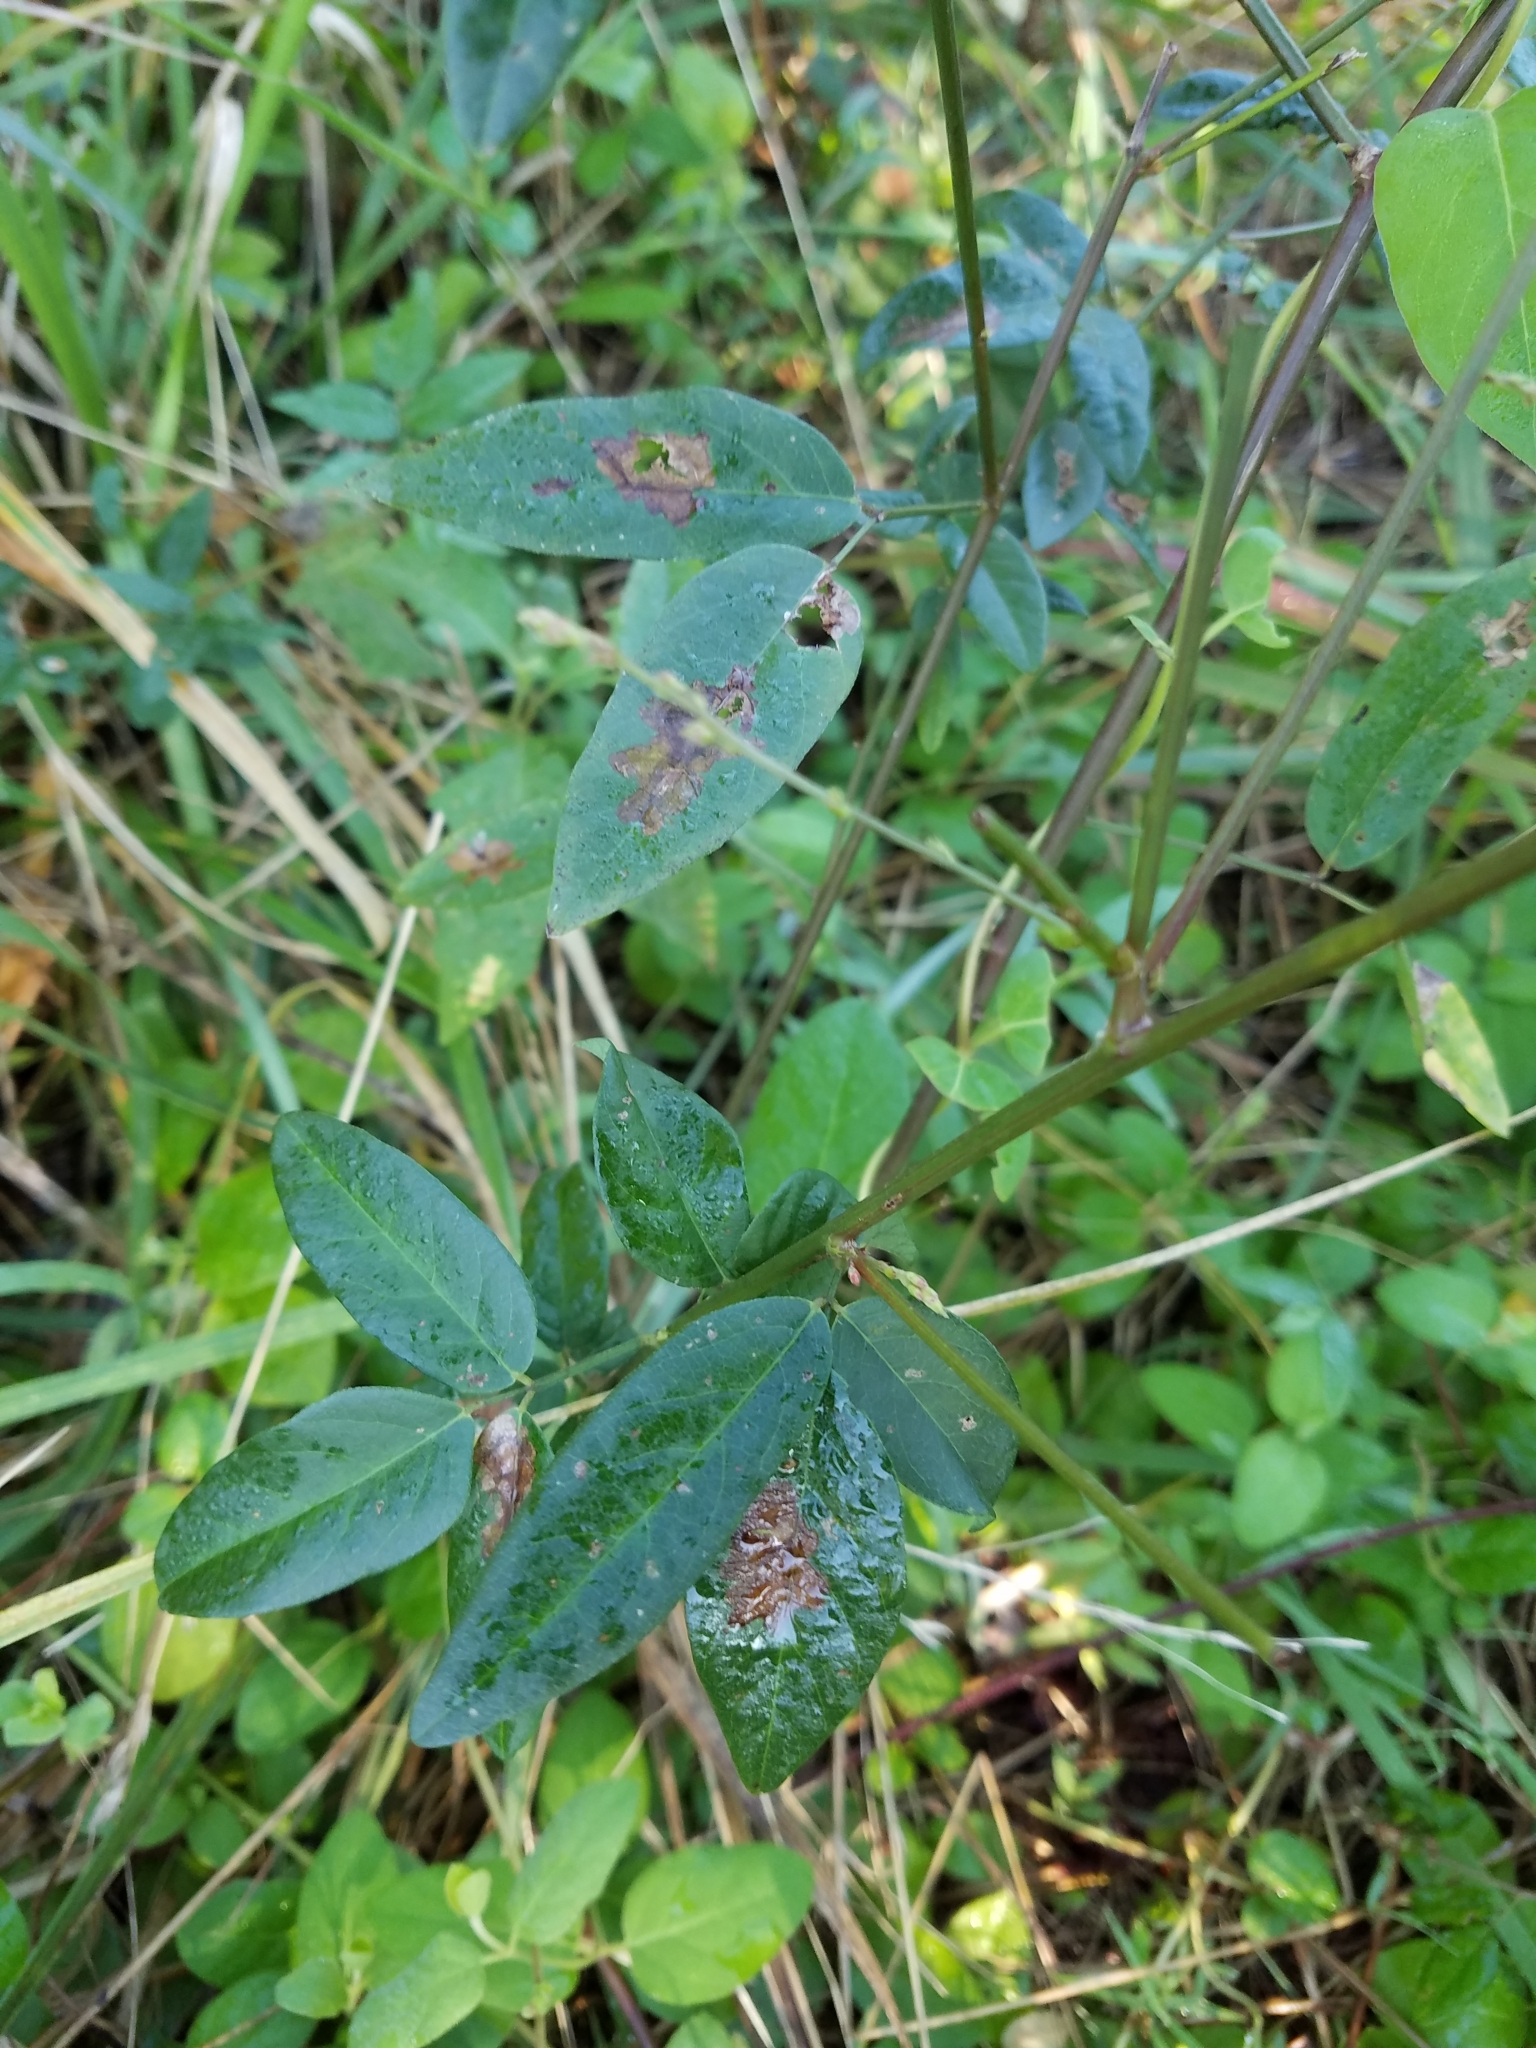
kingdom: Plantae
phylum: Tracheophyta
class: Magnoliopsida
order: Fabales
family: Fabaceae
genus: Desmodium
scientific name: Desmodium paniculatum
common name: Panicled tick-clover
